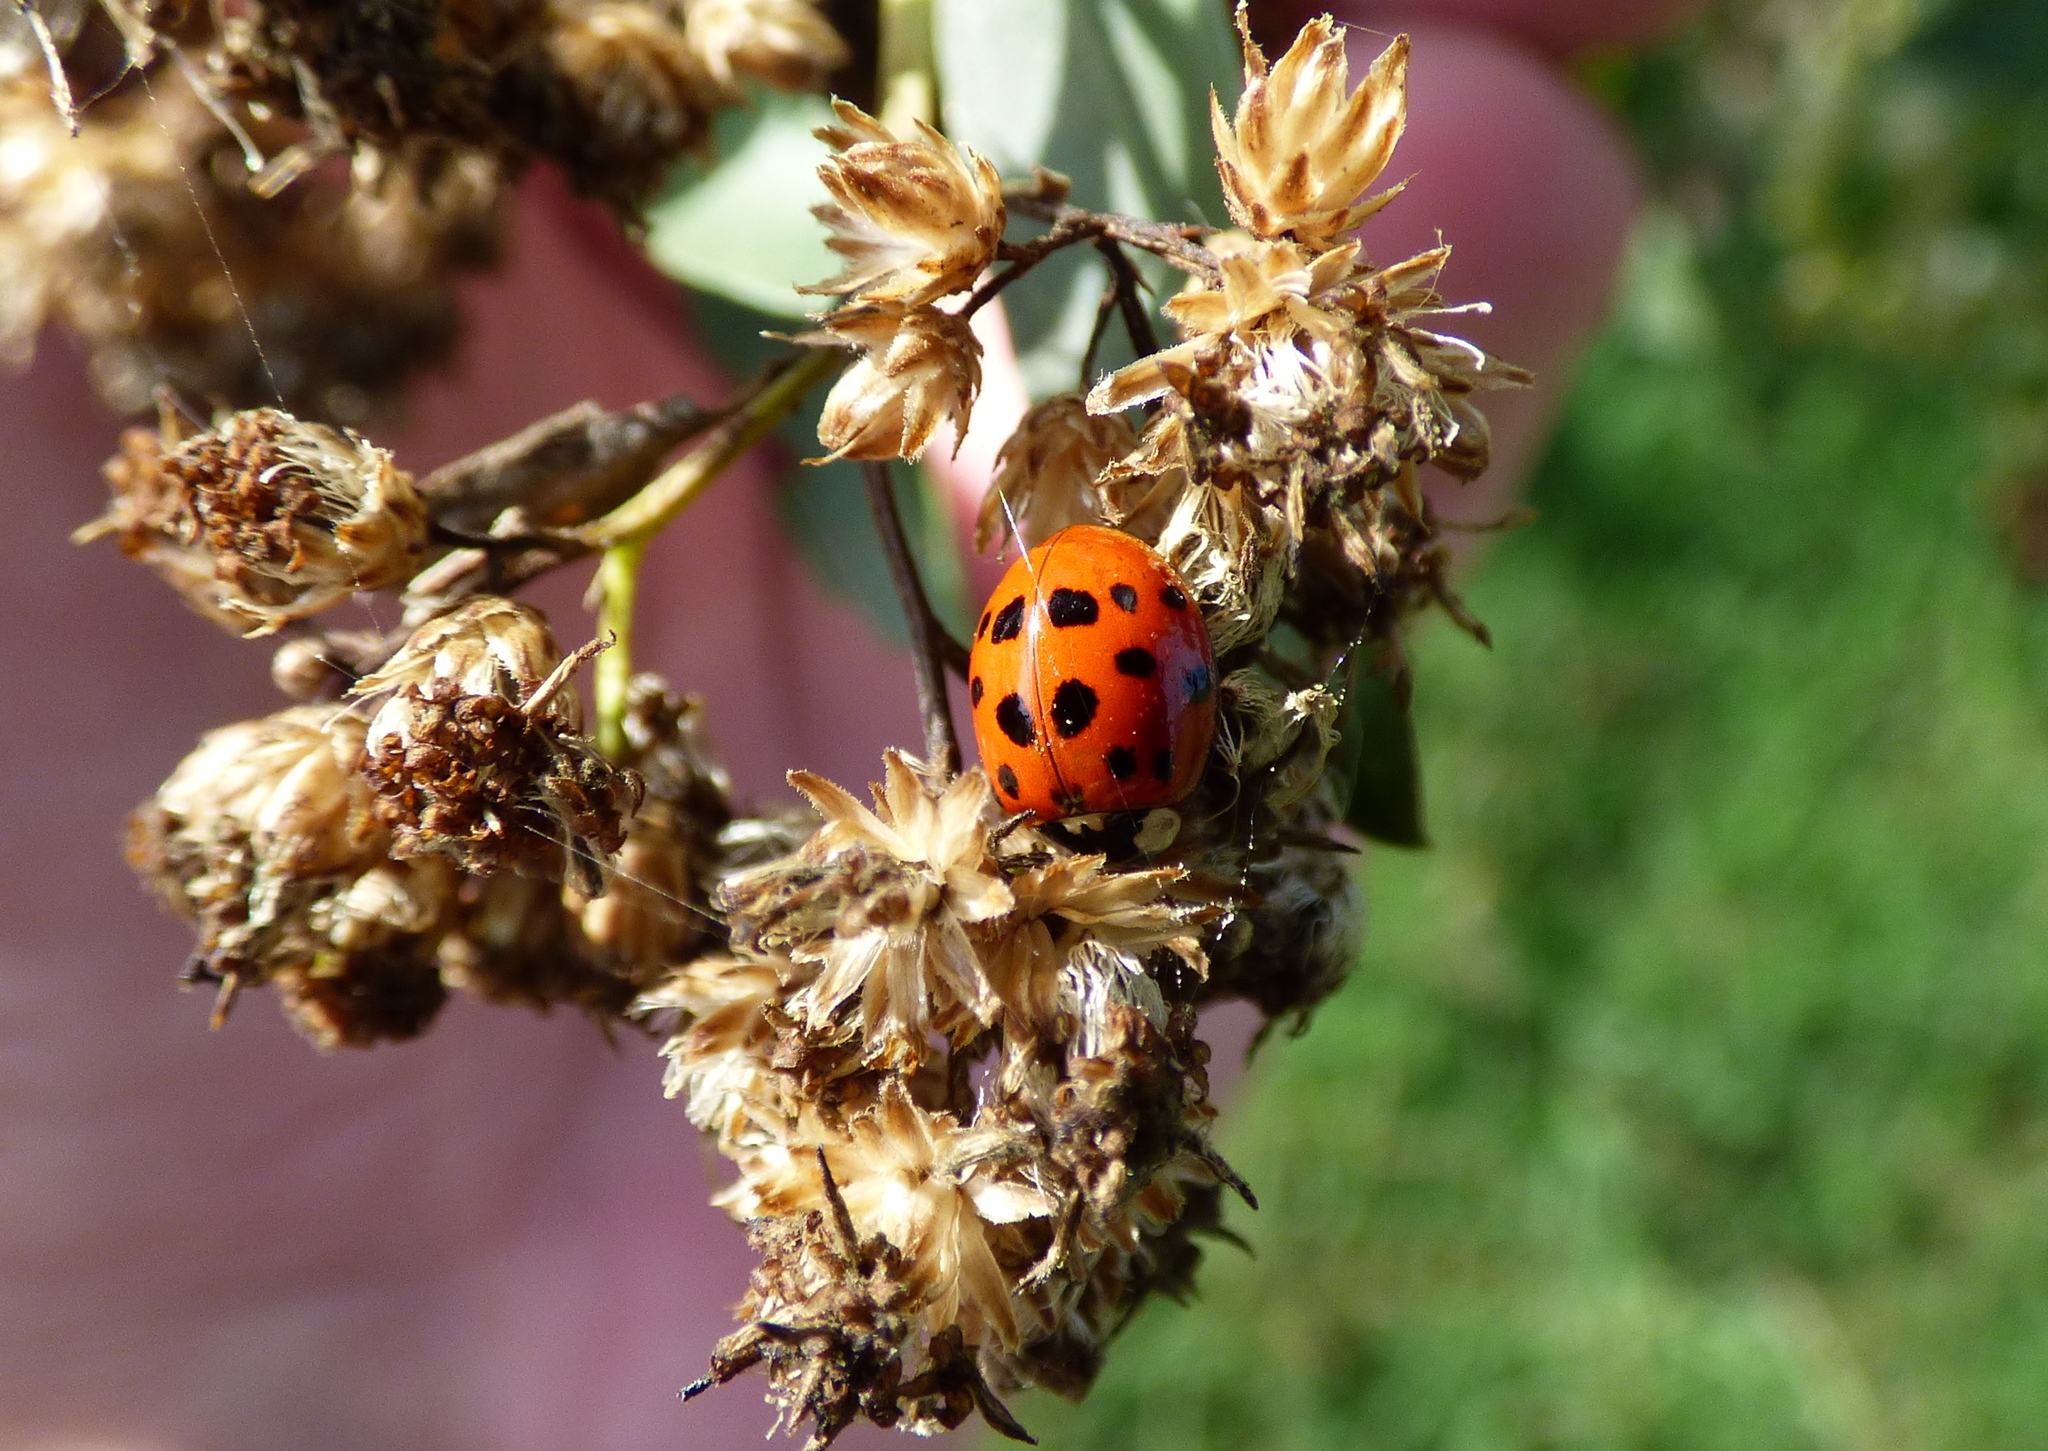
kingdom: Animalia
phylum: Arthropoda
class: Insecta
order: Coleoptera
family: Coccinellidae
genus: Harmonia
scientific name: Harmonia axyridis
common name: Harlequin ladybird
